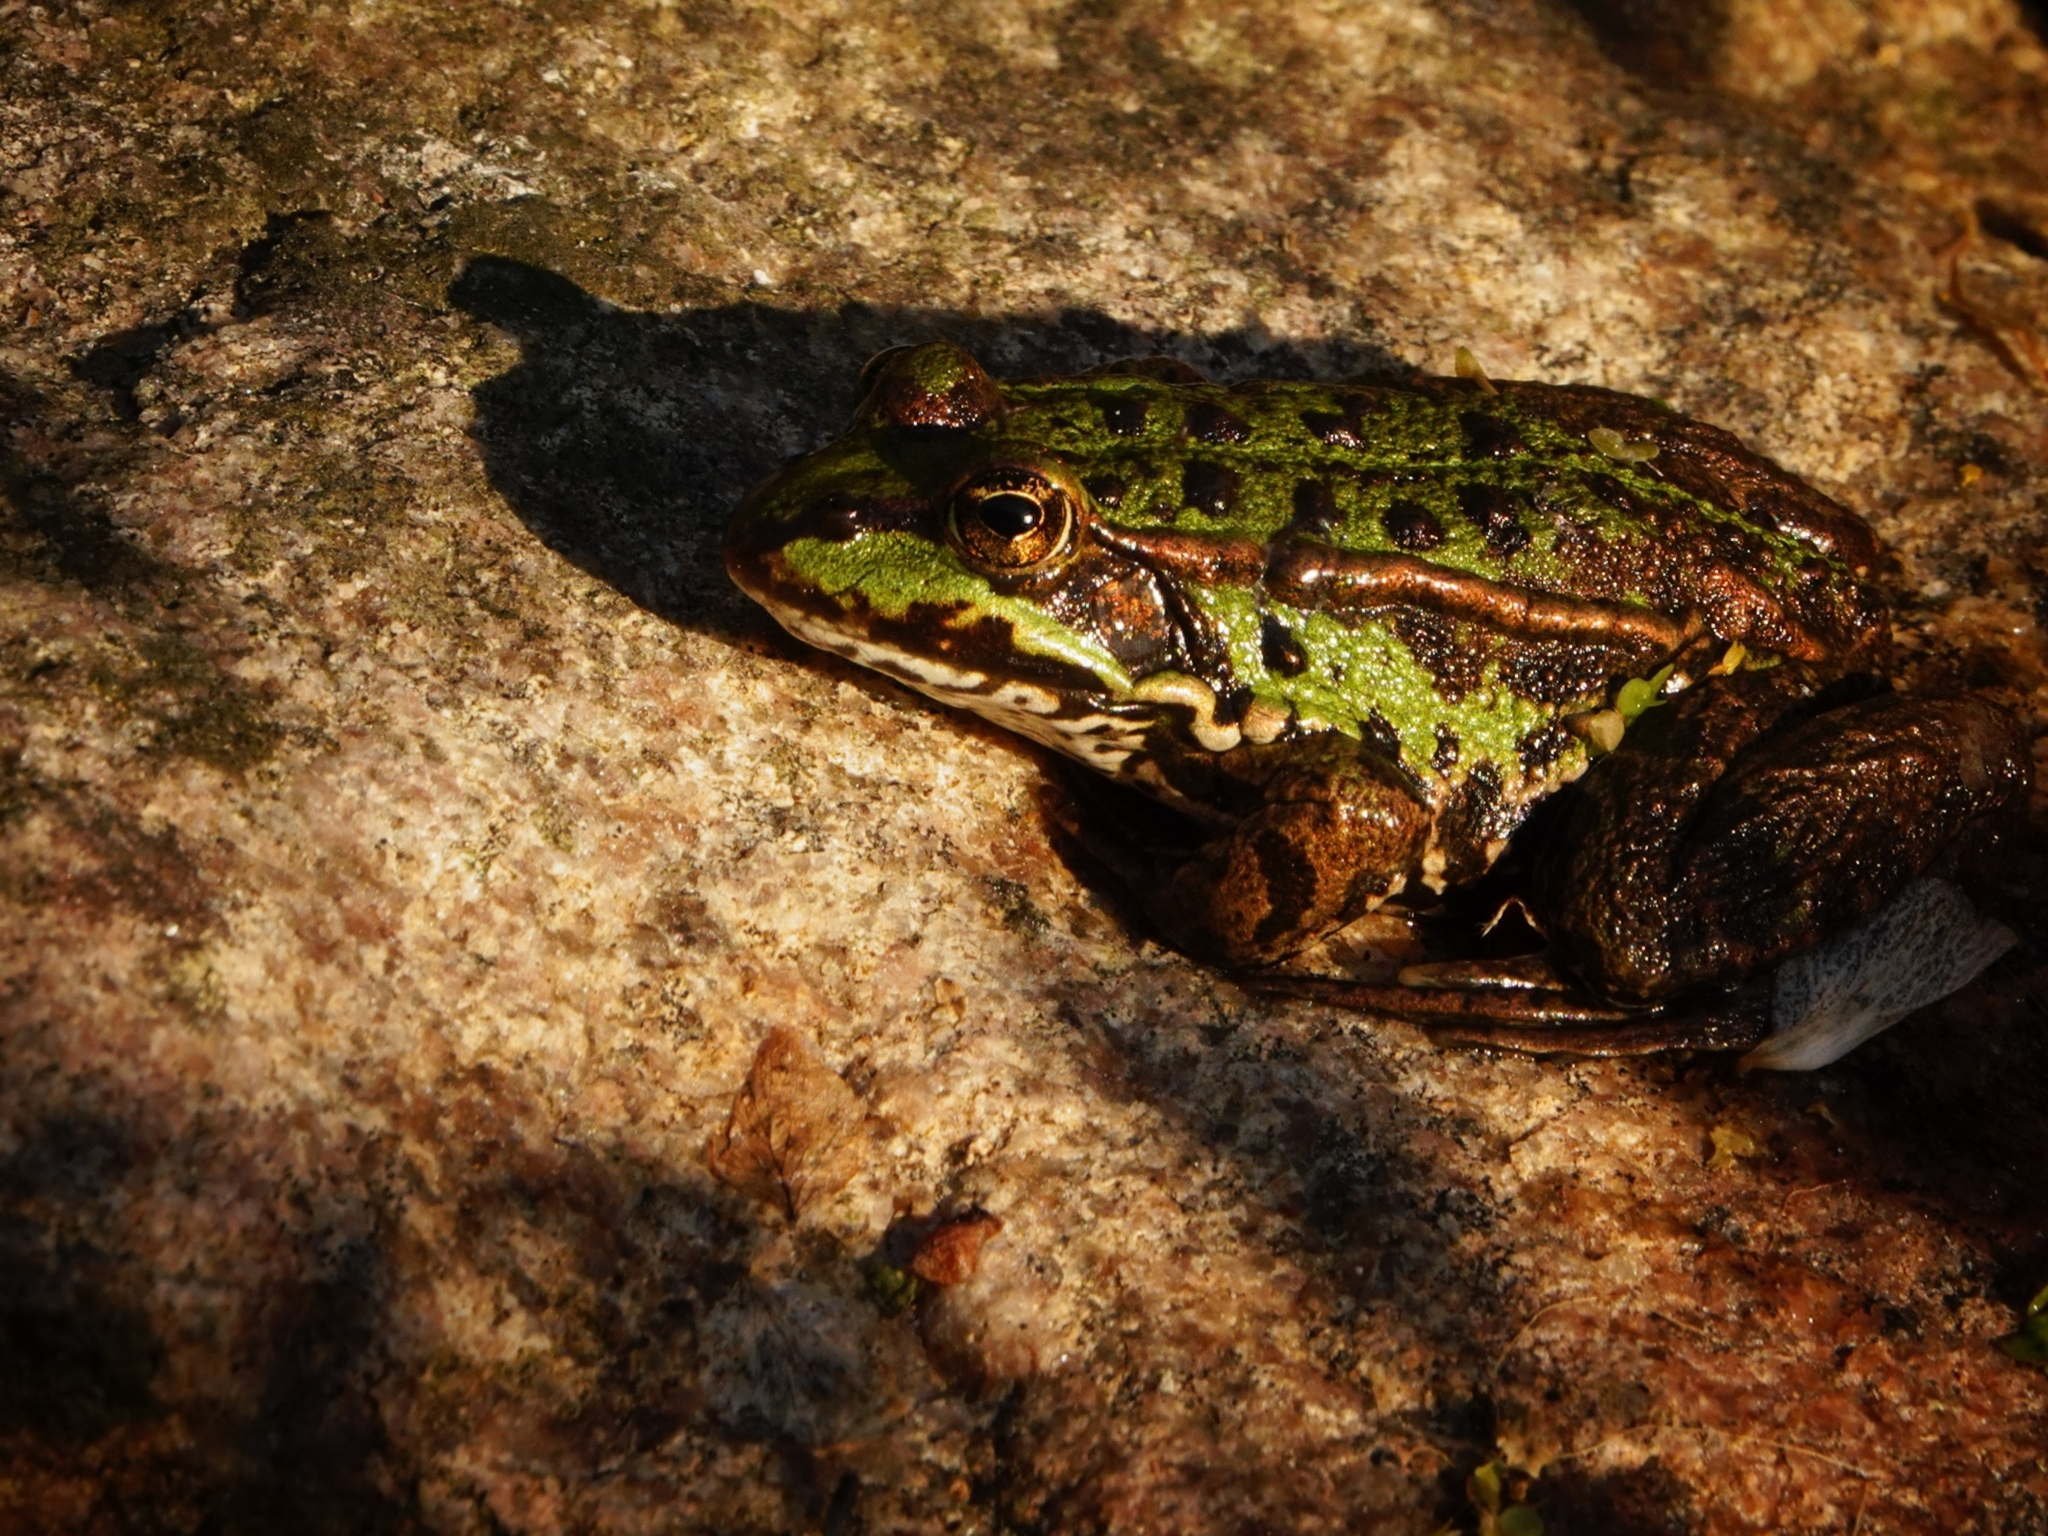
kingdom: Animalia
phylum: Chordata
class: Amphibia
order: Anura
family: Ranidae
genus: Pelophylax
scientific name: Pelophylax lessonae
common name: Pool frog
